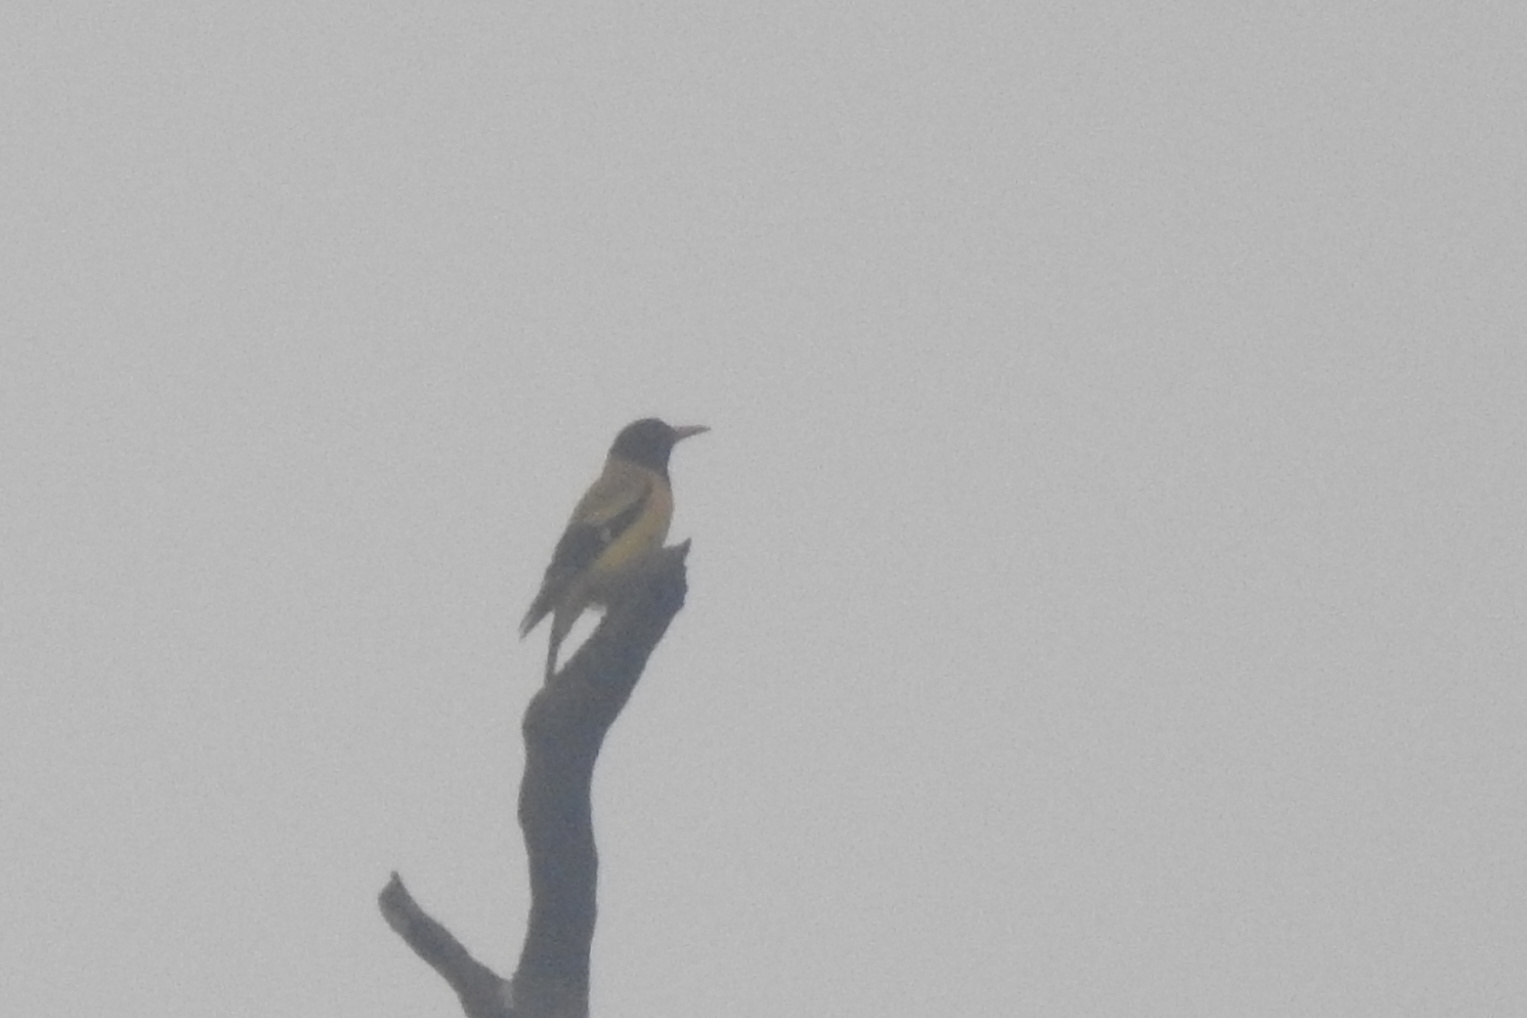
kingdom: Animalia
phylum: Chordata
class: Aves
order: Passeriformes
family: Oriolidae
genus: Oriolus
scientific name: Oriolus xanthornus
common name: Black-hooded oriole
